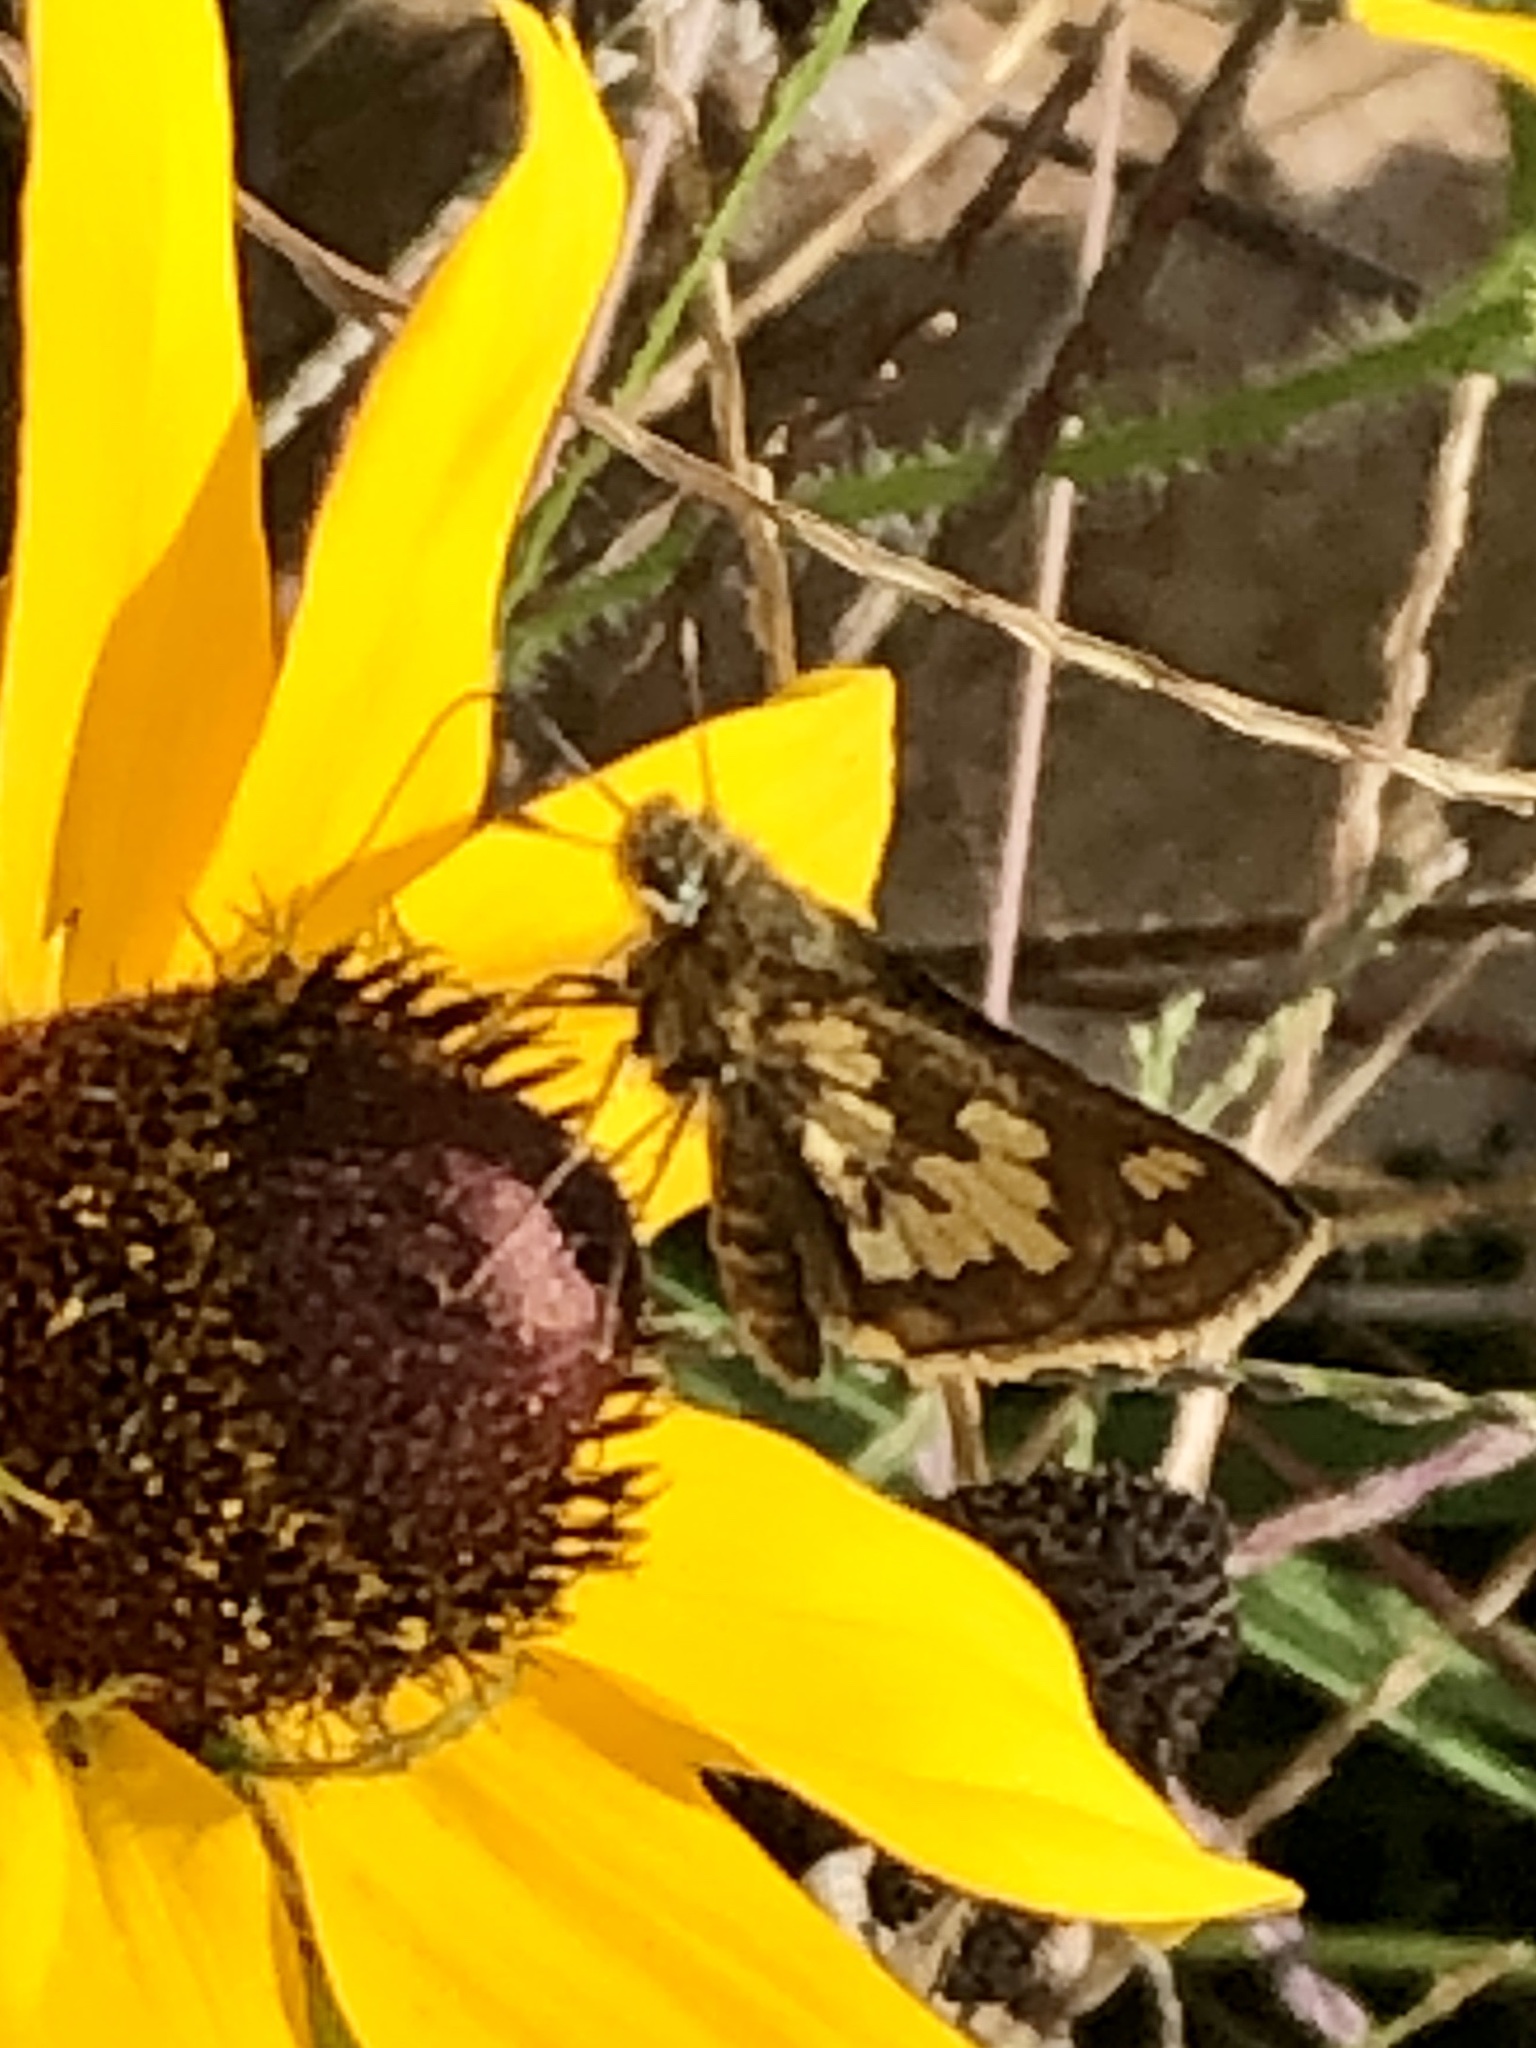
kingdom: Animalia
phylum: Arthropoda
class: Insecta
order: Lepidoptera
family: Hesperiidae
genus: Polites
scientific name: Polites coras
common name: Peck's skipper
